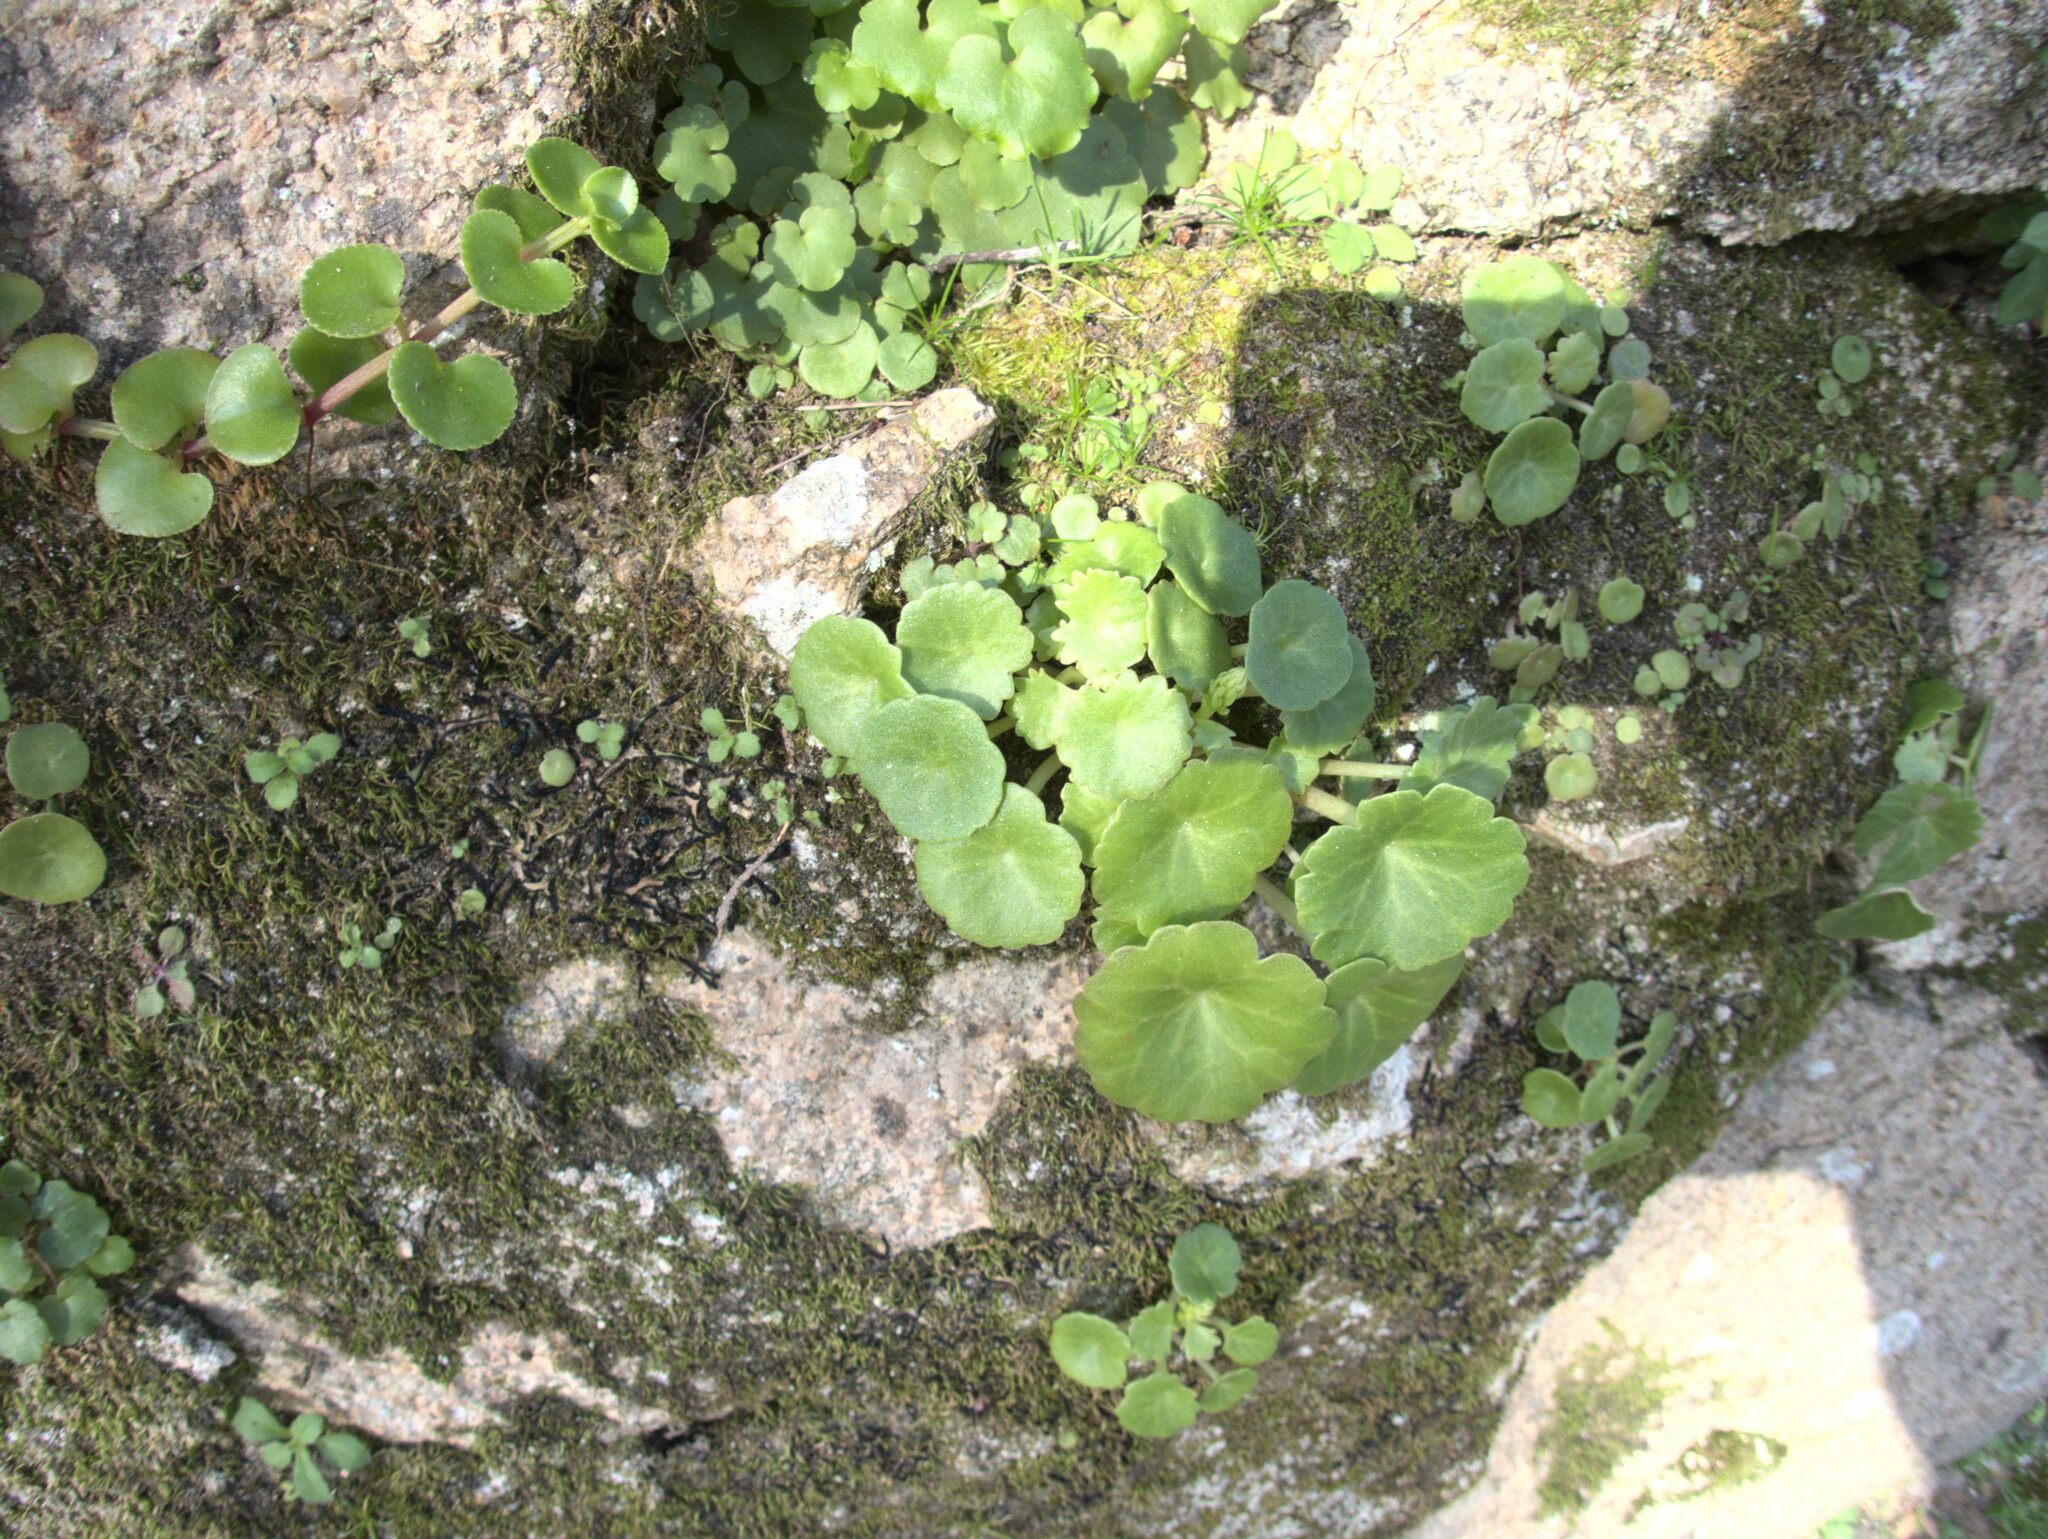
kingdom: Plantae
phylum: Tracheophyta
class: Magnoliopsida
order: Saxifragales
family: Crassulaceae
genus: Umbilicus
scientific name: Umbilicus rupestris
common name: Navelwort
